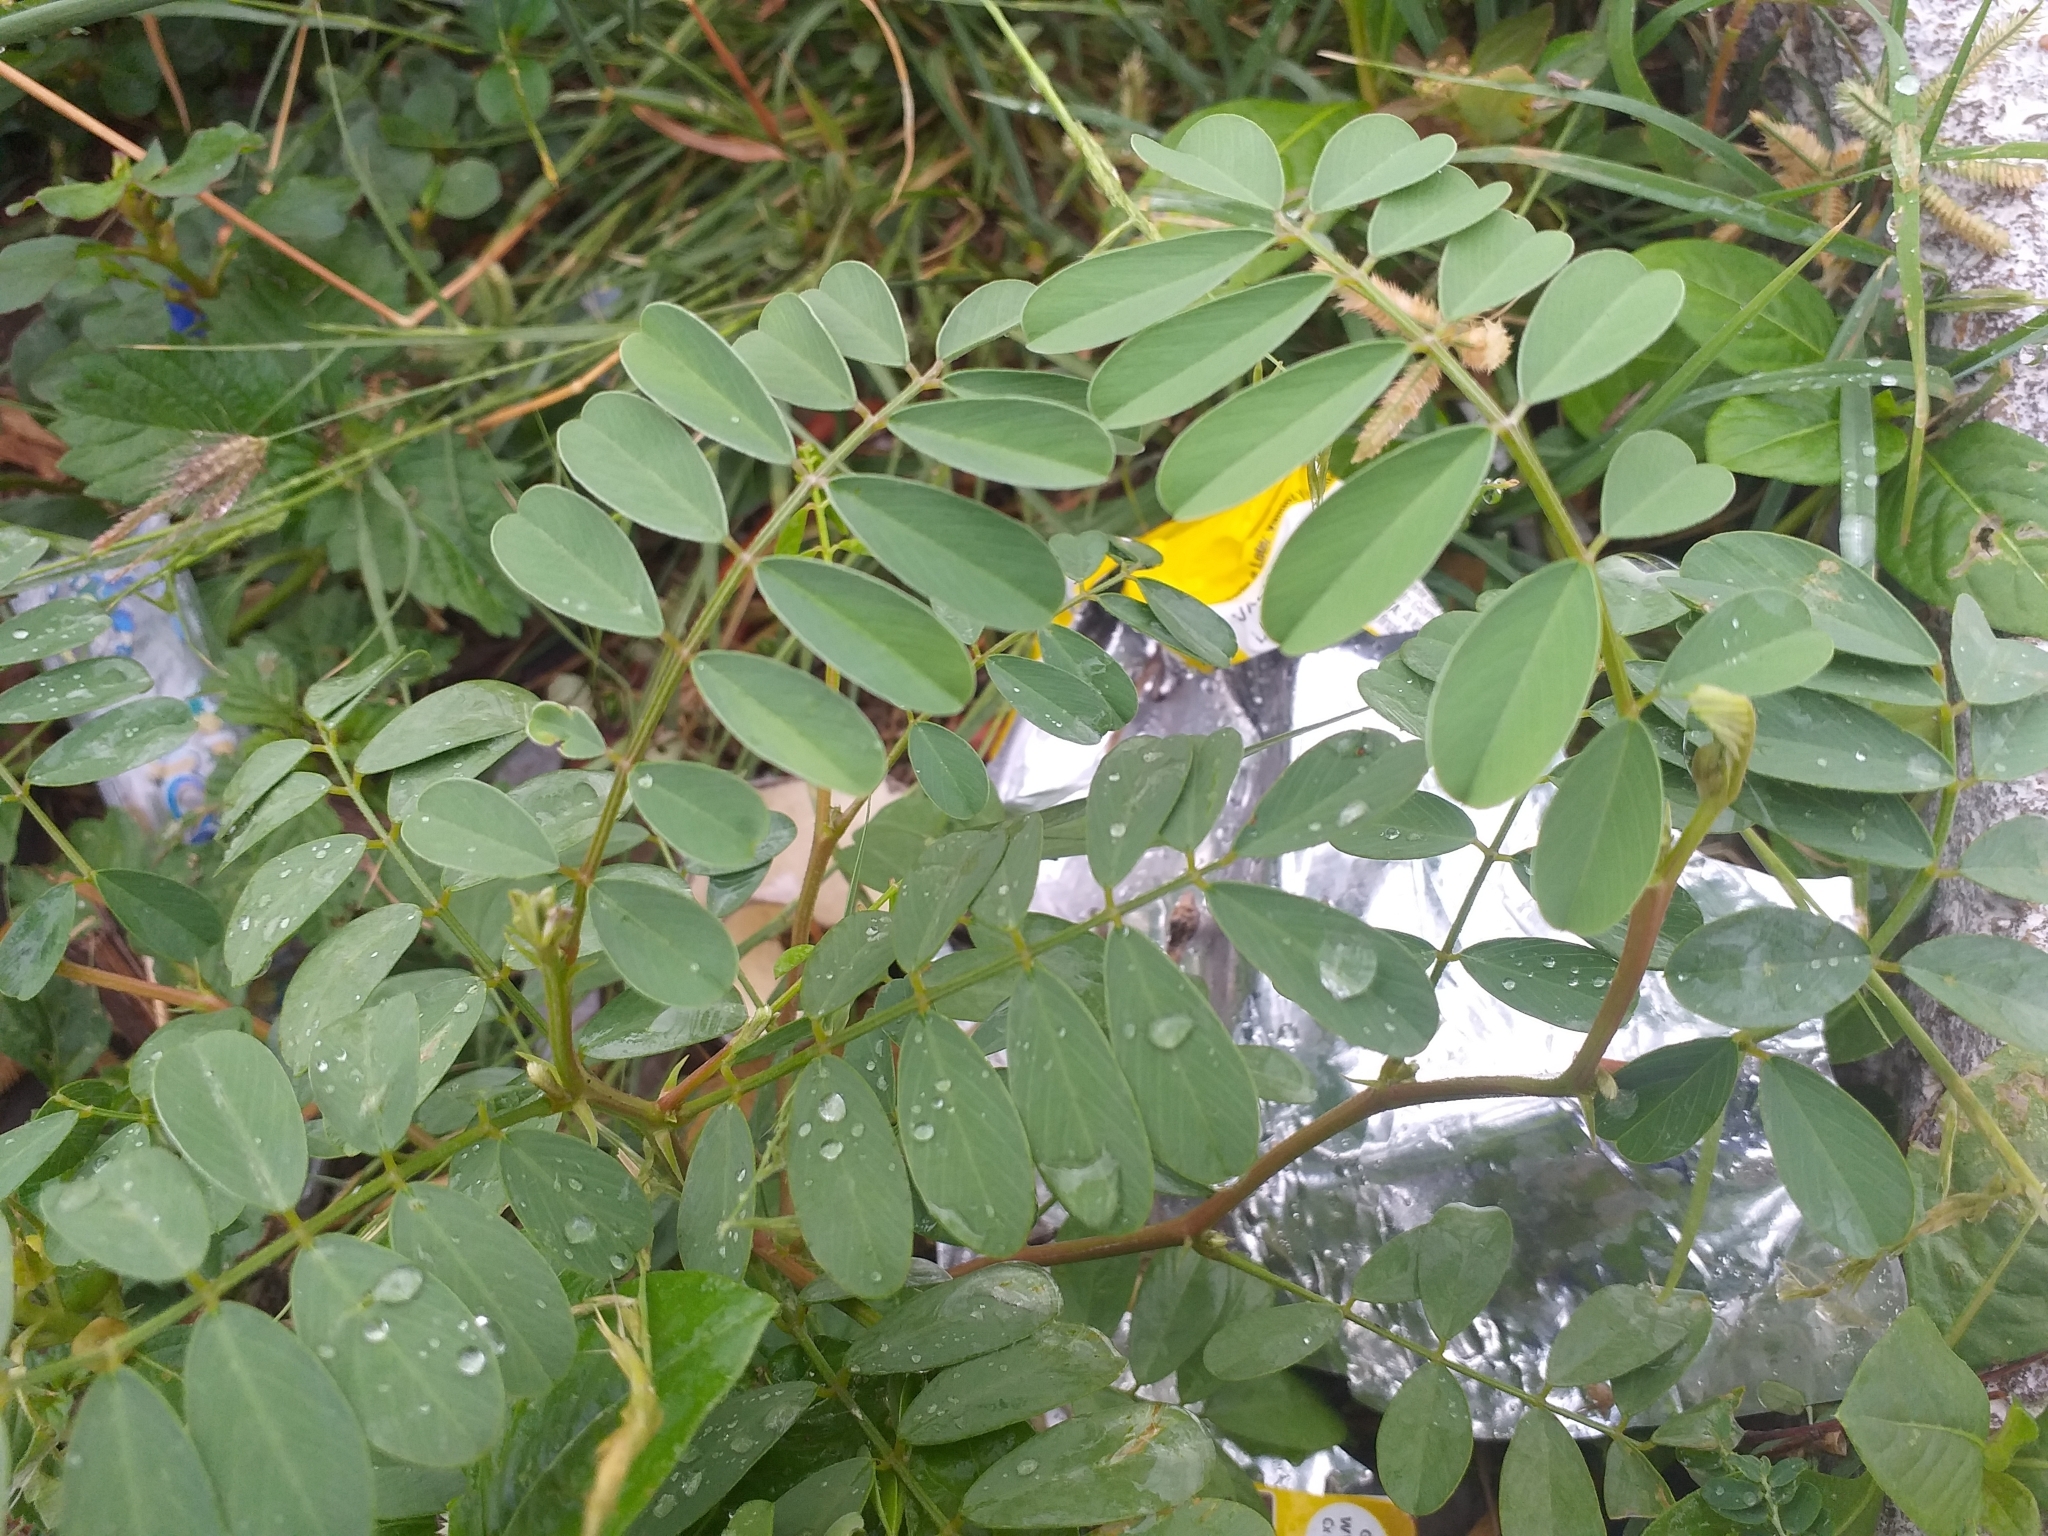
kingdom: Plantae
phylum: Tracheophyta
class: Magnoliopsida
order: Fabales
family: Fabaceae
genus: Tephrosia
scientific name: Tephrosia purpurea
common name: Fishpoison
